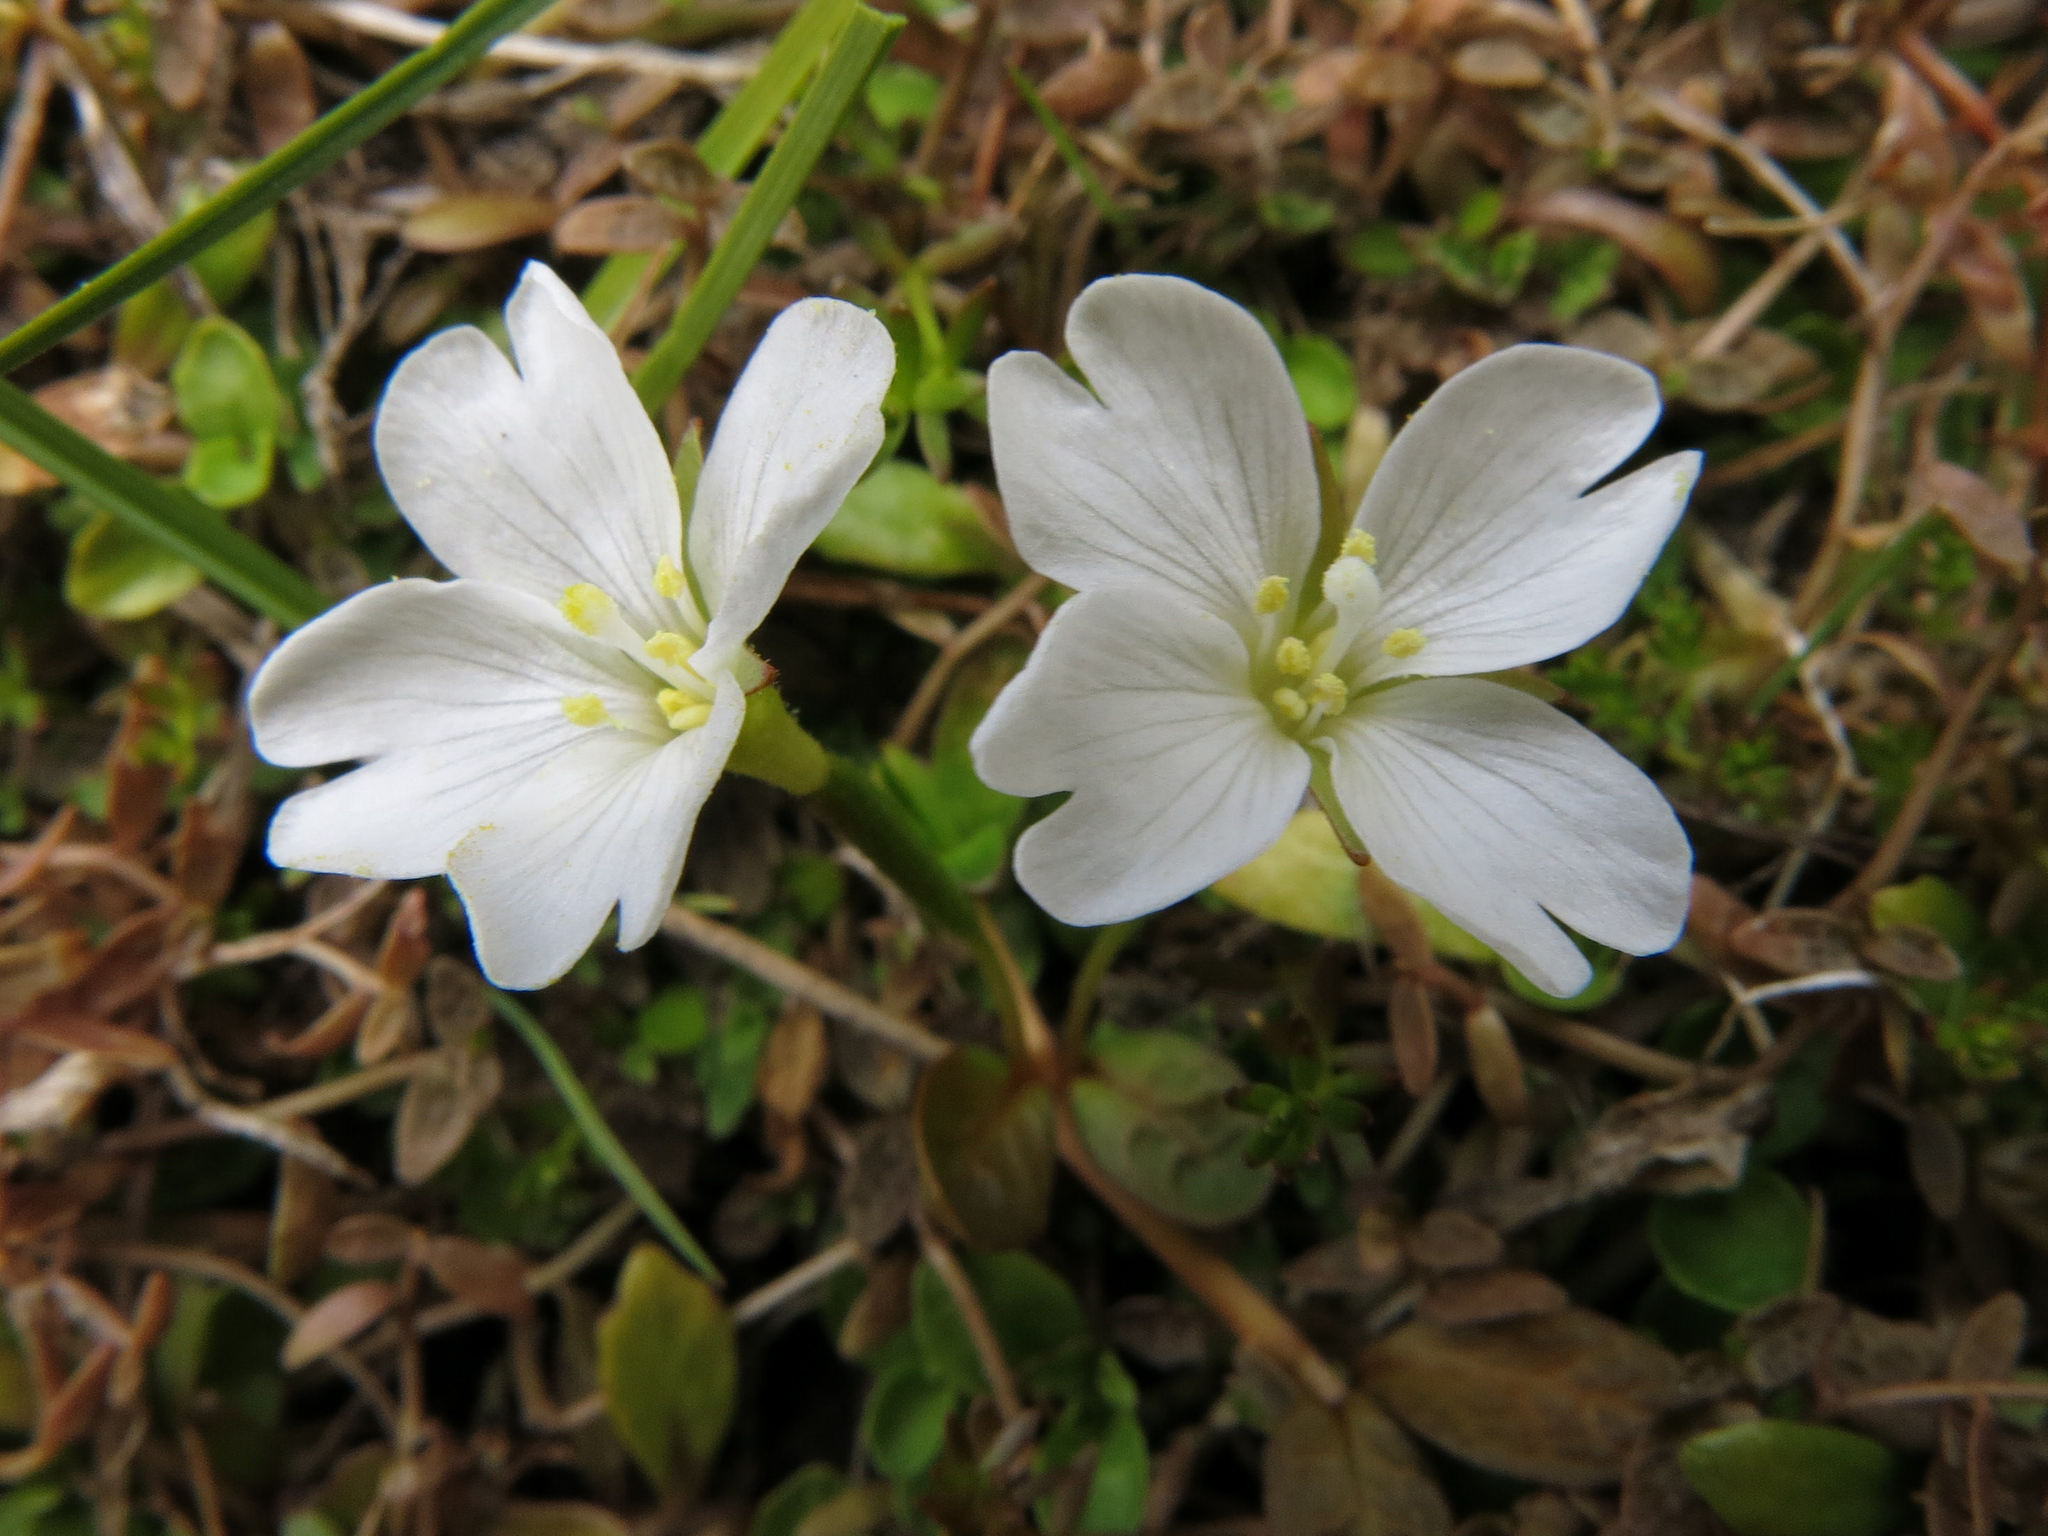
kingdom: Plantae
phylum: Tracheophyta
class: Magnoliopsida
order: Myrtales
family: Onagraceae
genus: Epilobium
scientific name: Epilobium angustum
